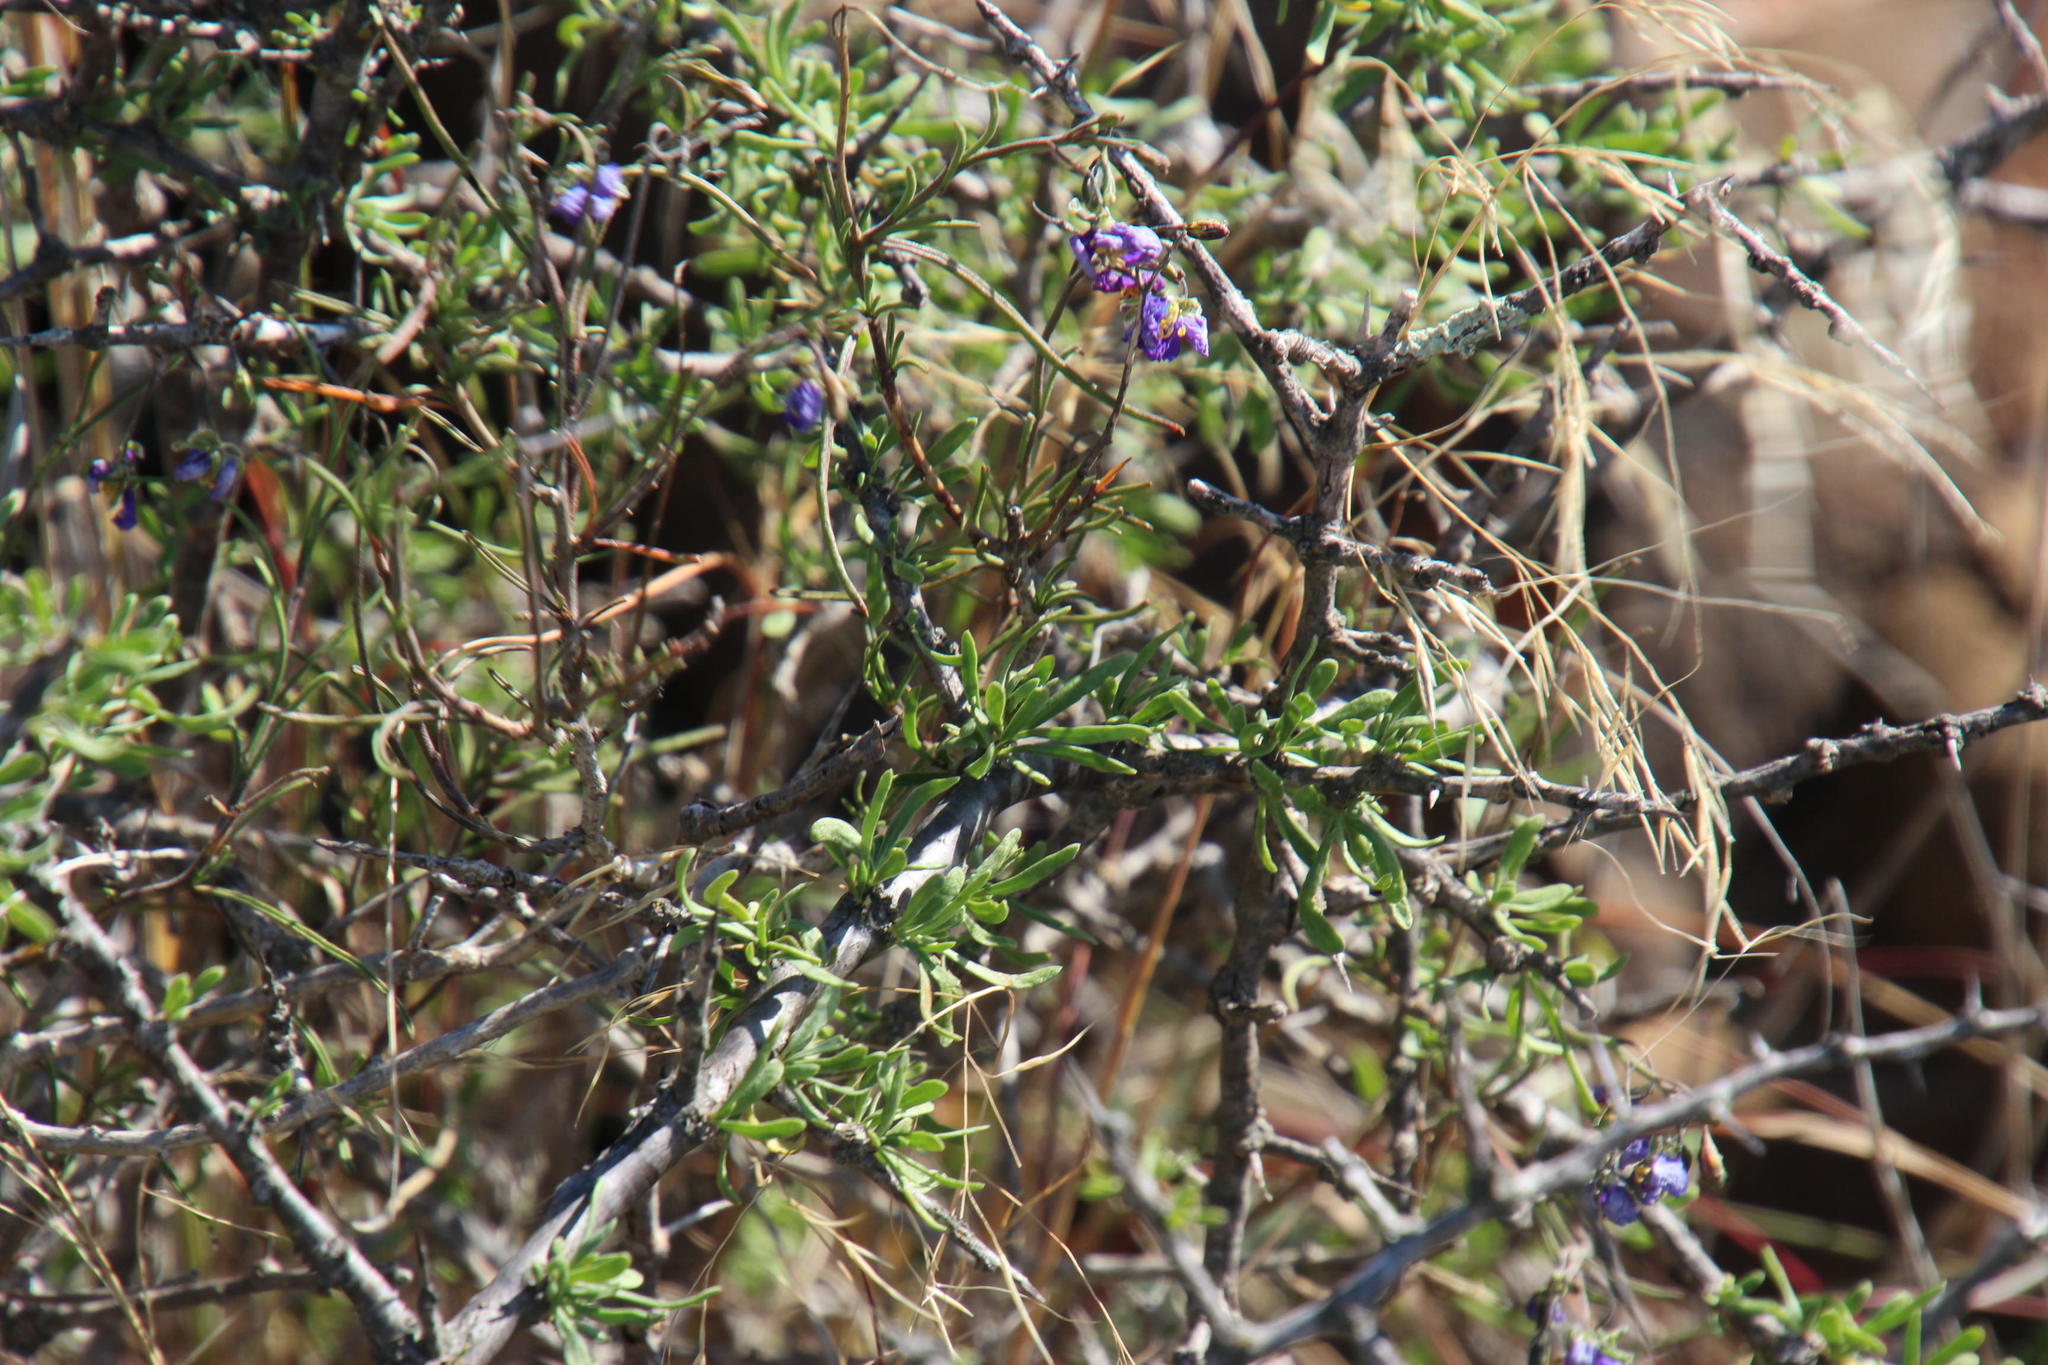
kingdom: Plantae
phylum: Tracheophyta
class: Magnoliopsida
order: Brassicales
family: Brassicaceae
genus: Heliophila
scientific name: Heliophila suavissima
